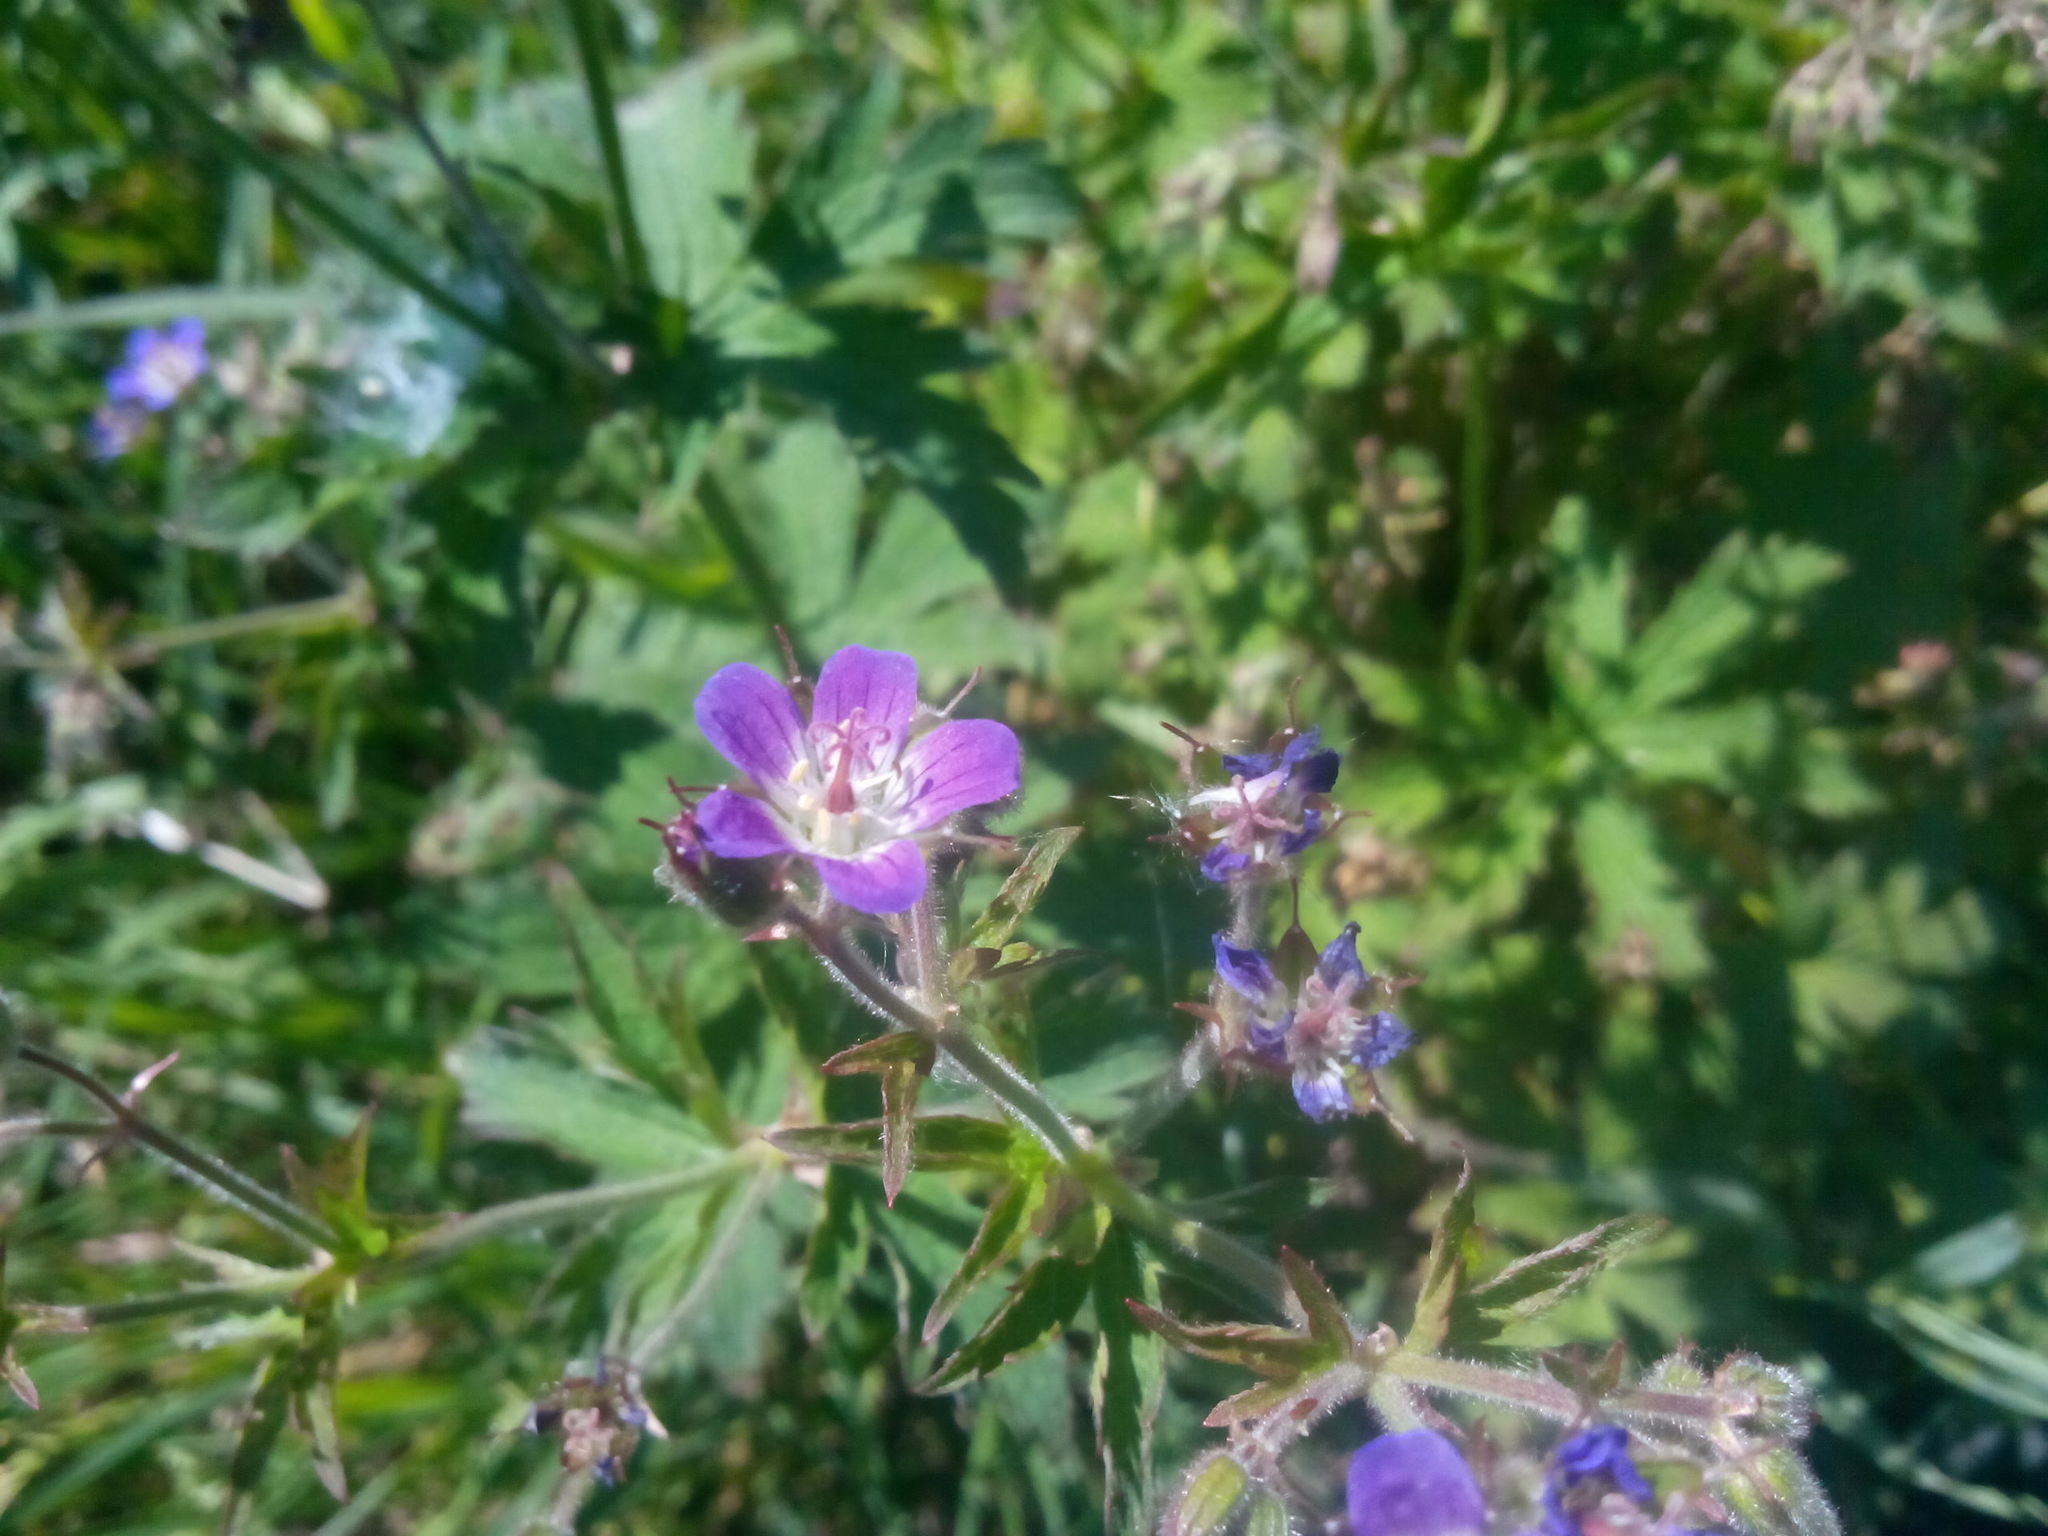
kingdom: Plantae
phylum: Tracheophyta
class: Magnoliopsida
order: Geraniales
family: Geraniaceae
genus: Geranium
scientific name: Geranium sylvaticum
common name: Wood crane's-bill
